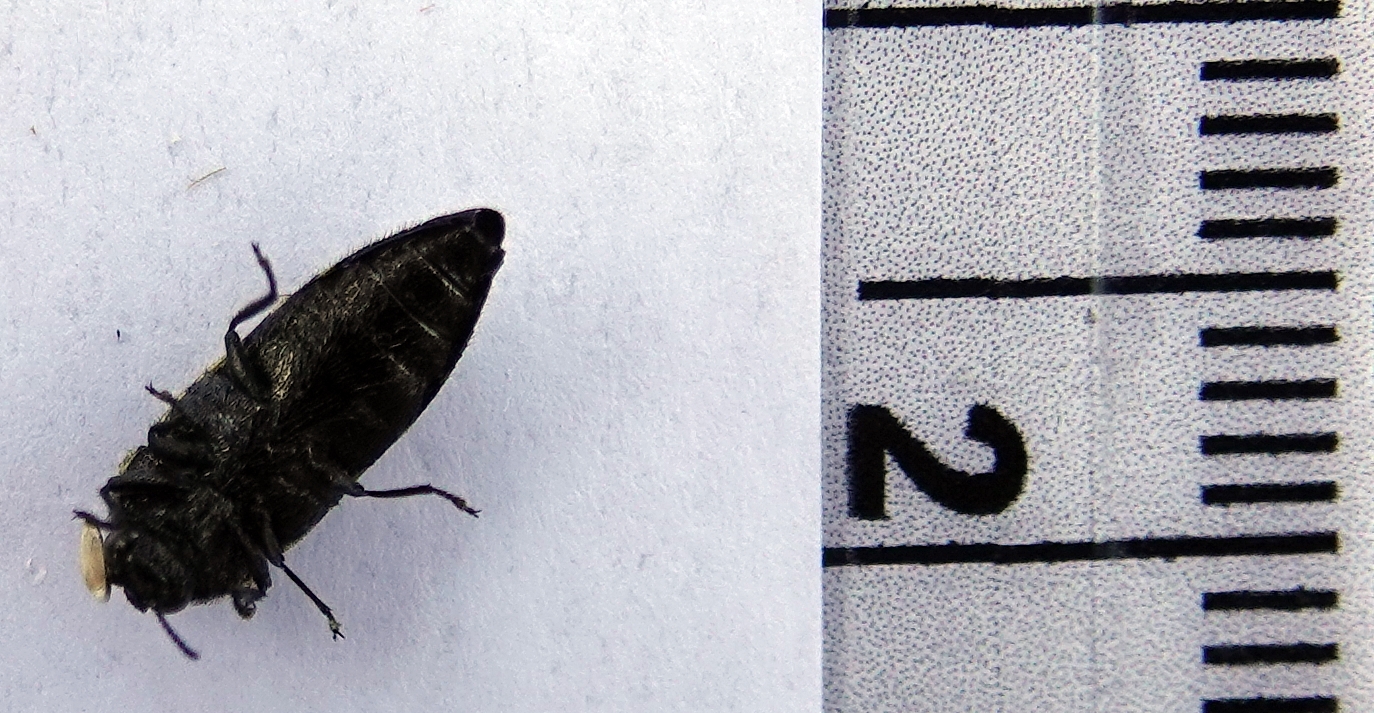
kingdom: Animalia
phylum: Arthropoda
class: Insecta
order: Coleoptera
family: Buprestidae
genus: Acmaeodera
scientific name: Acmaeodera pulchella
